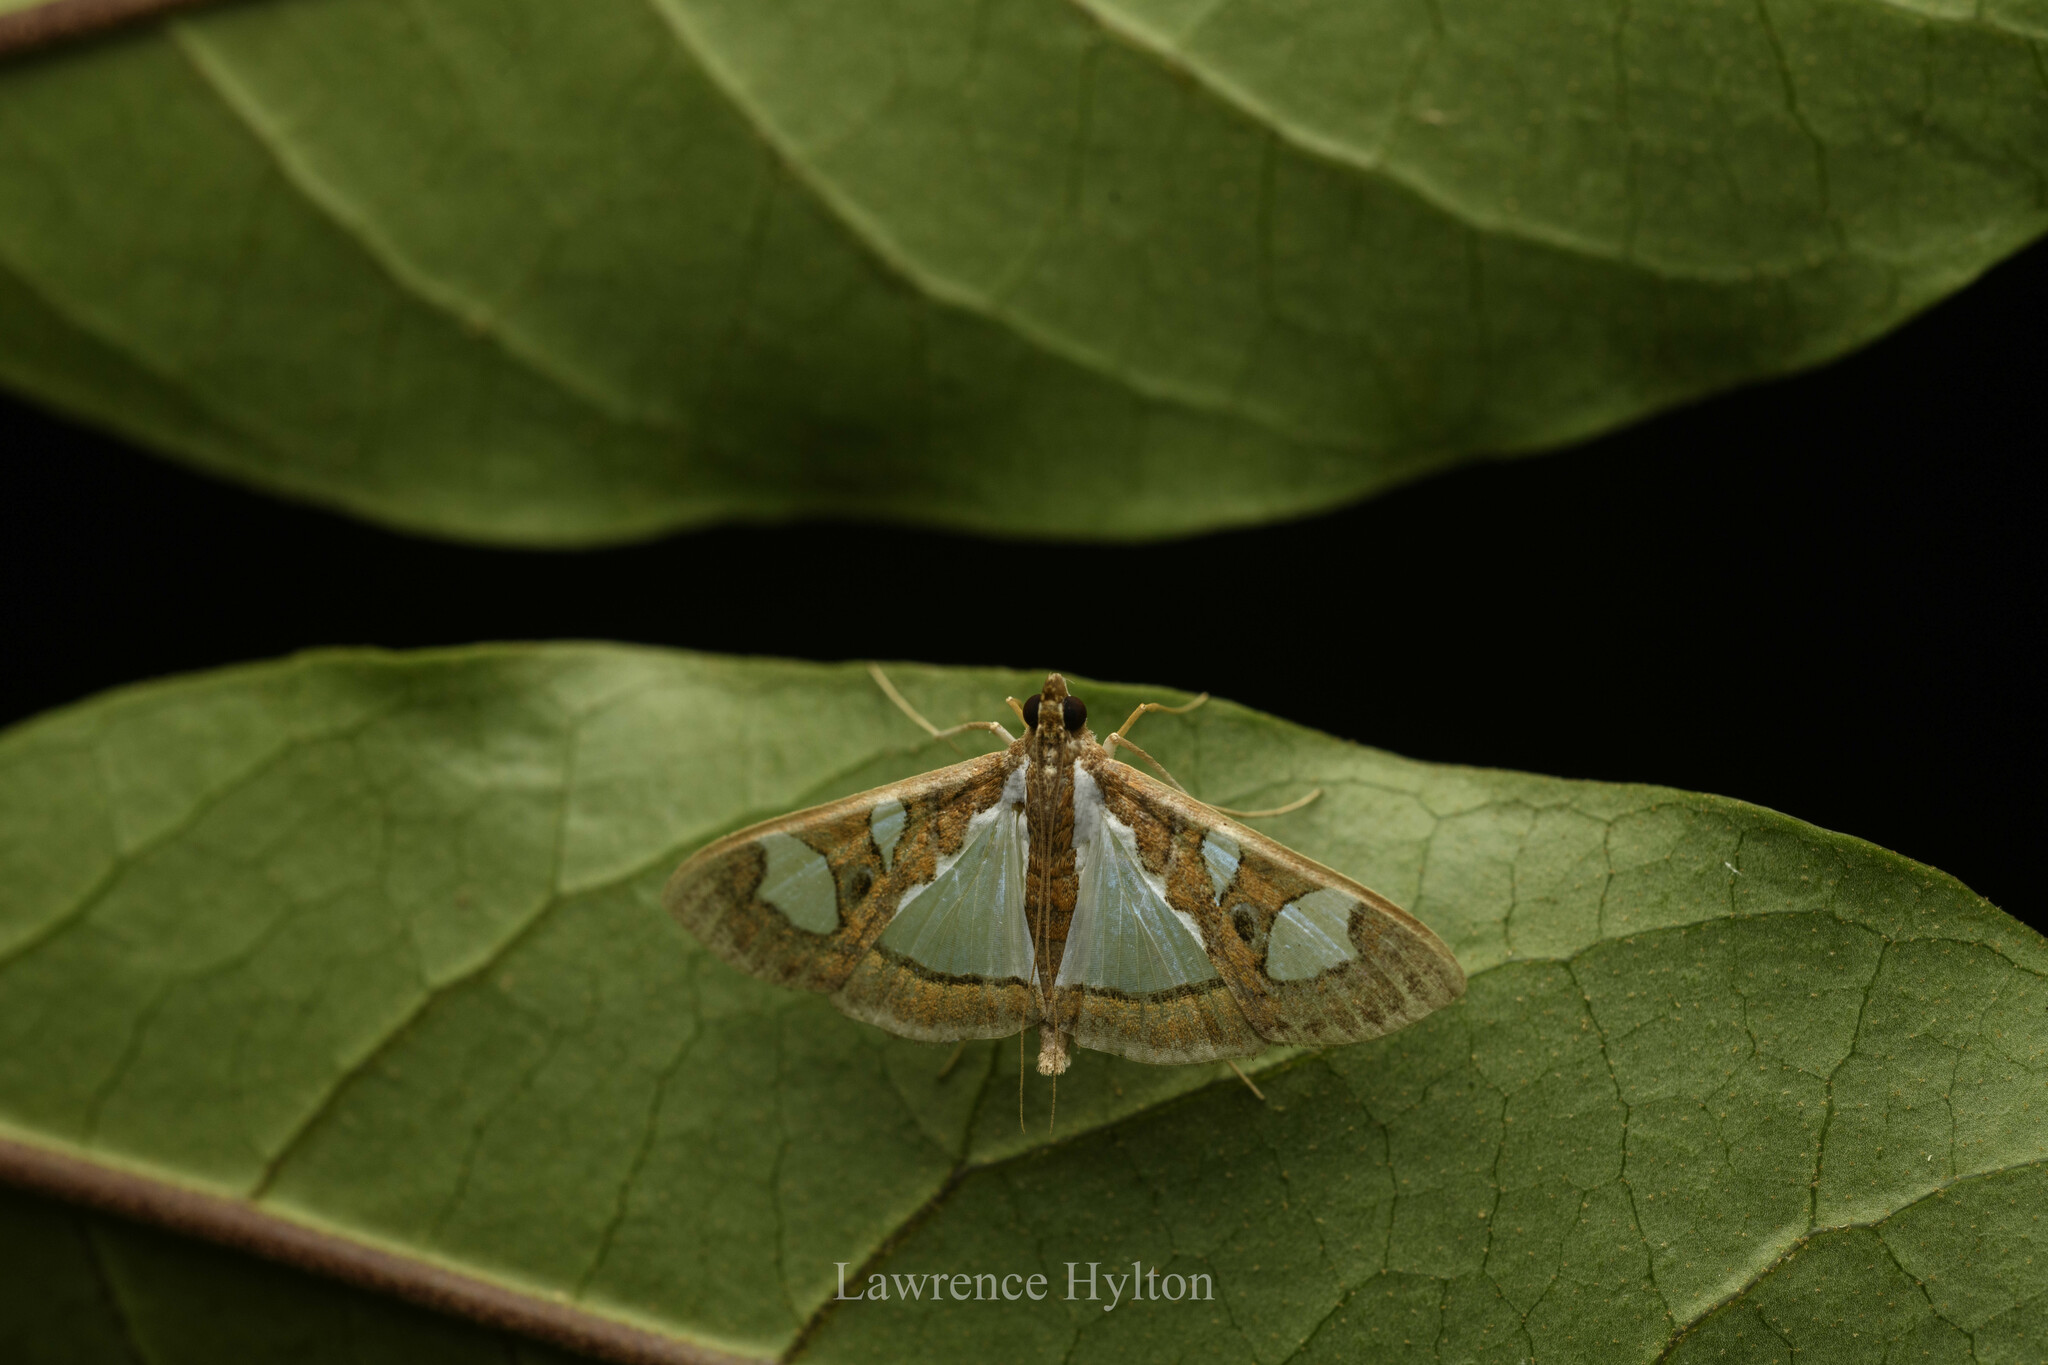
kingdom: Animalia
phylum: Arthropoda
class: Insecta
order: Lepidoptera
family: Crambidae
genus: Glyphodes
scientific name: Glyphodes bivitralis
